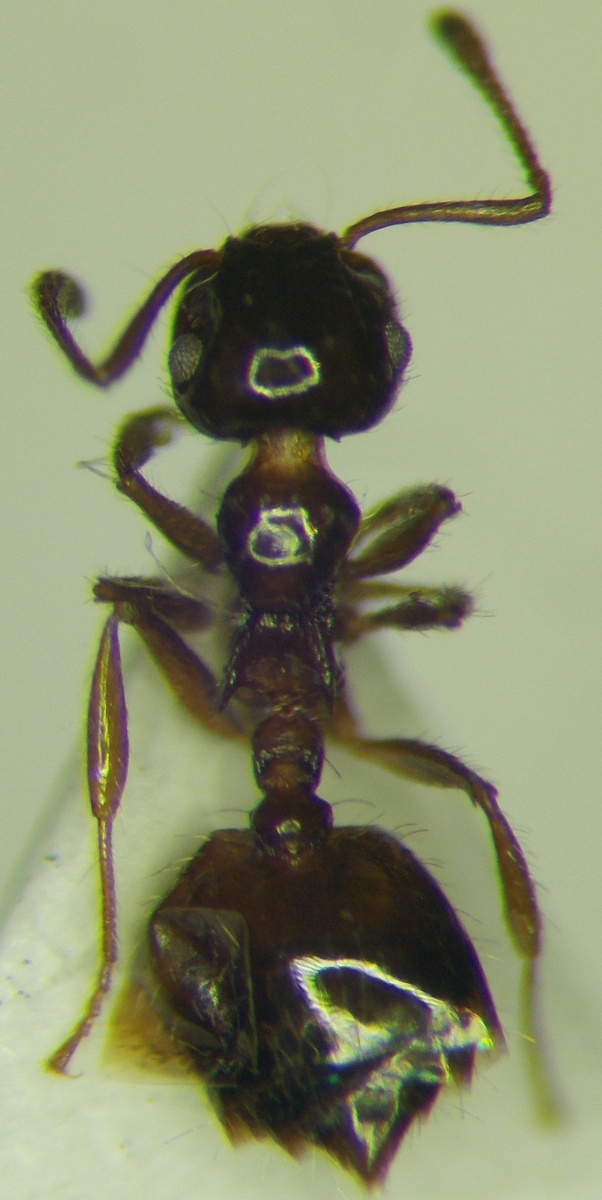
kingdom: Animalia
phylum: Arthropoda
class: Insecta
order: Hymenoptera
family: Formicidae
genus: Crematogaster
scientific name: Crematogaster sordidula
